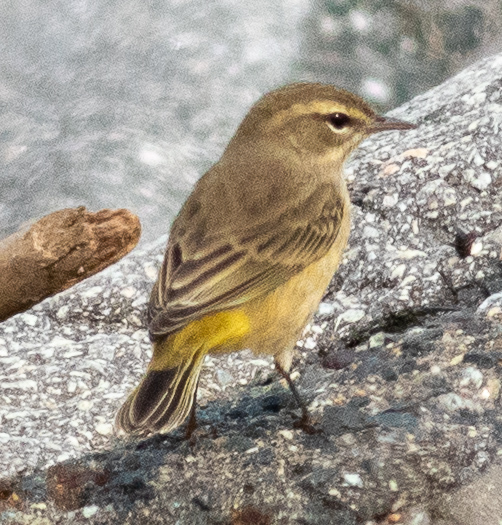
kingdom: Animalia
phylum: Chordata
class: Aves
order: Passeriformes
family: Parulidae
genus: Setophaga
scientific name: Setophaga palmarum
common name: Palm warbler
